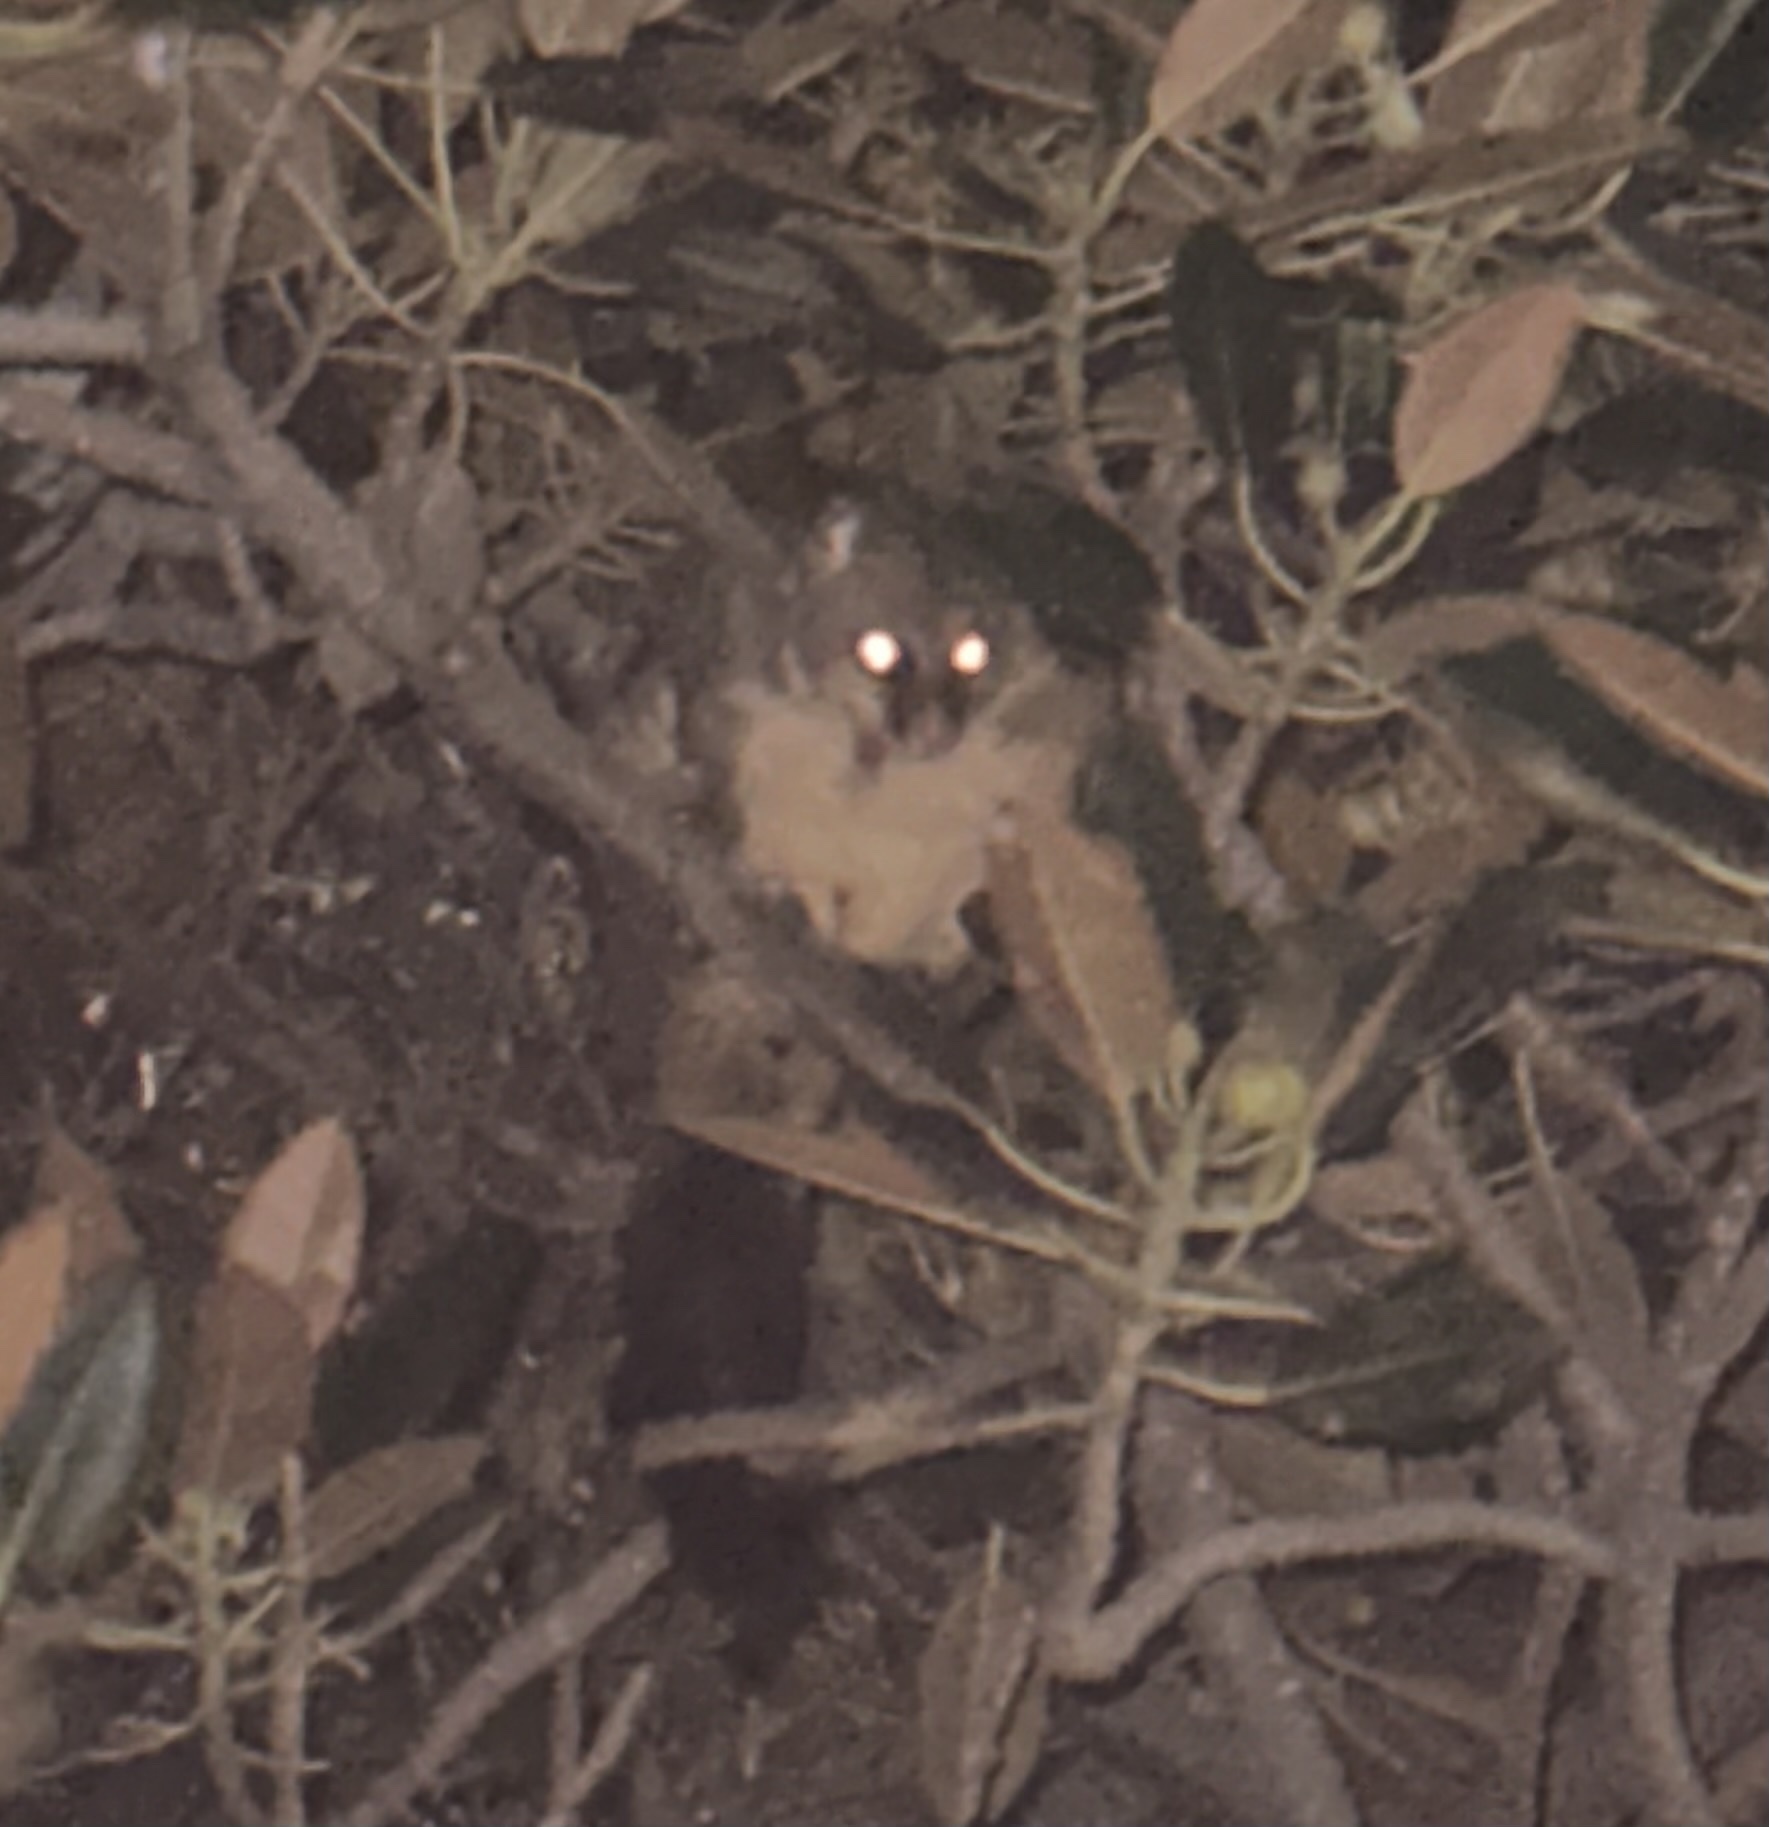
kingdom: Animalia
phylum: Chordata
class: Mammalia
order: Diprotodontia
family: Phalangeridae
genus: Trichosurus
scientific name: Trichosurus vulpecula
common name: Common brushtail
